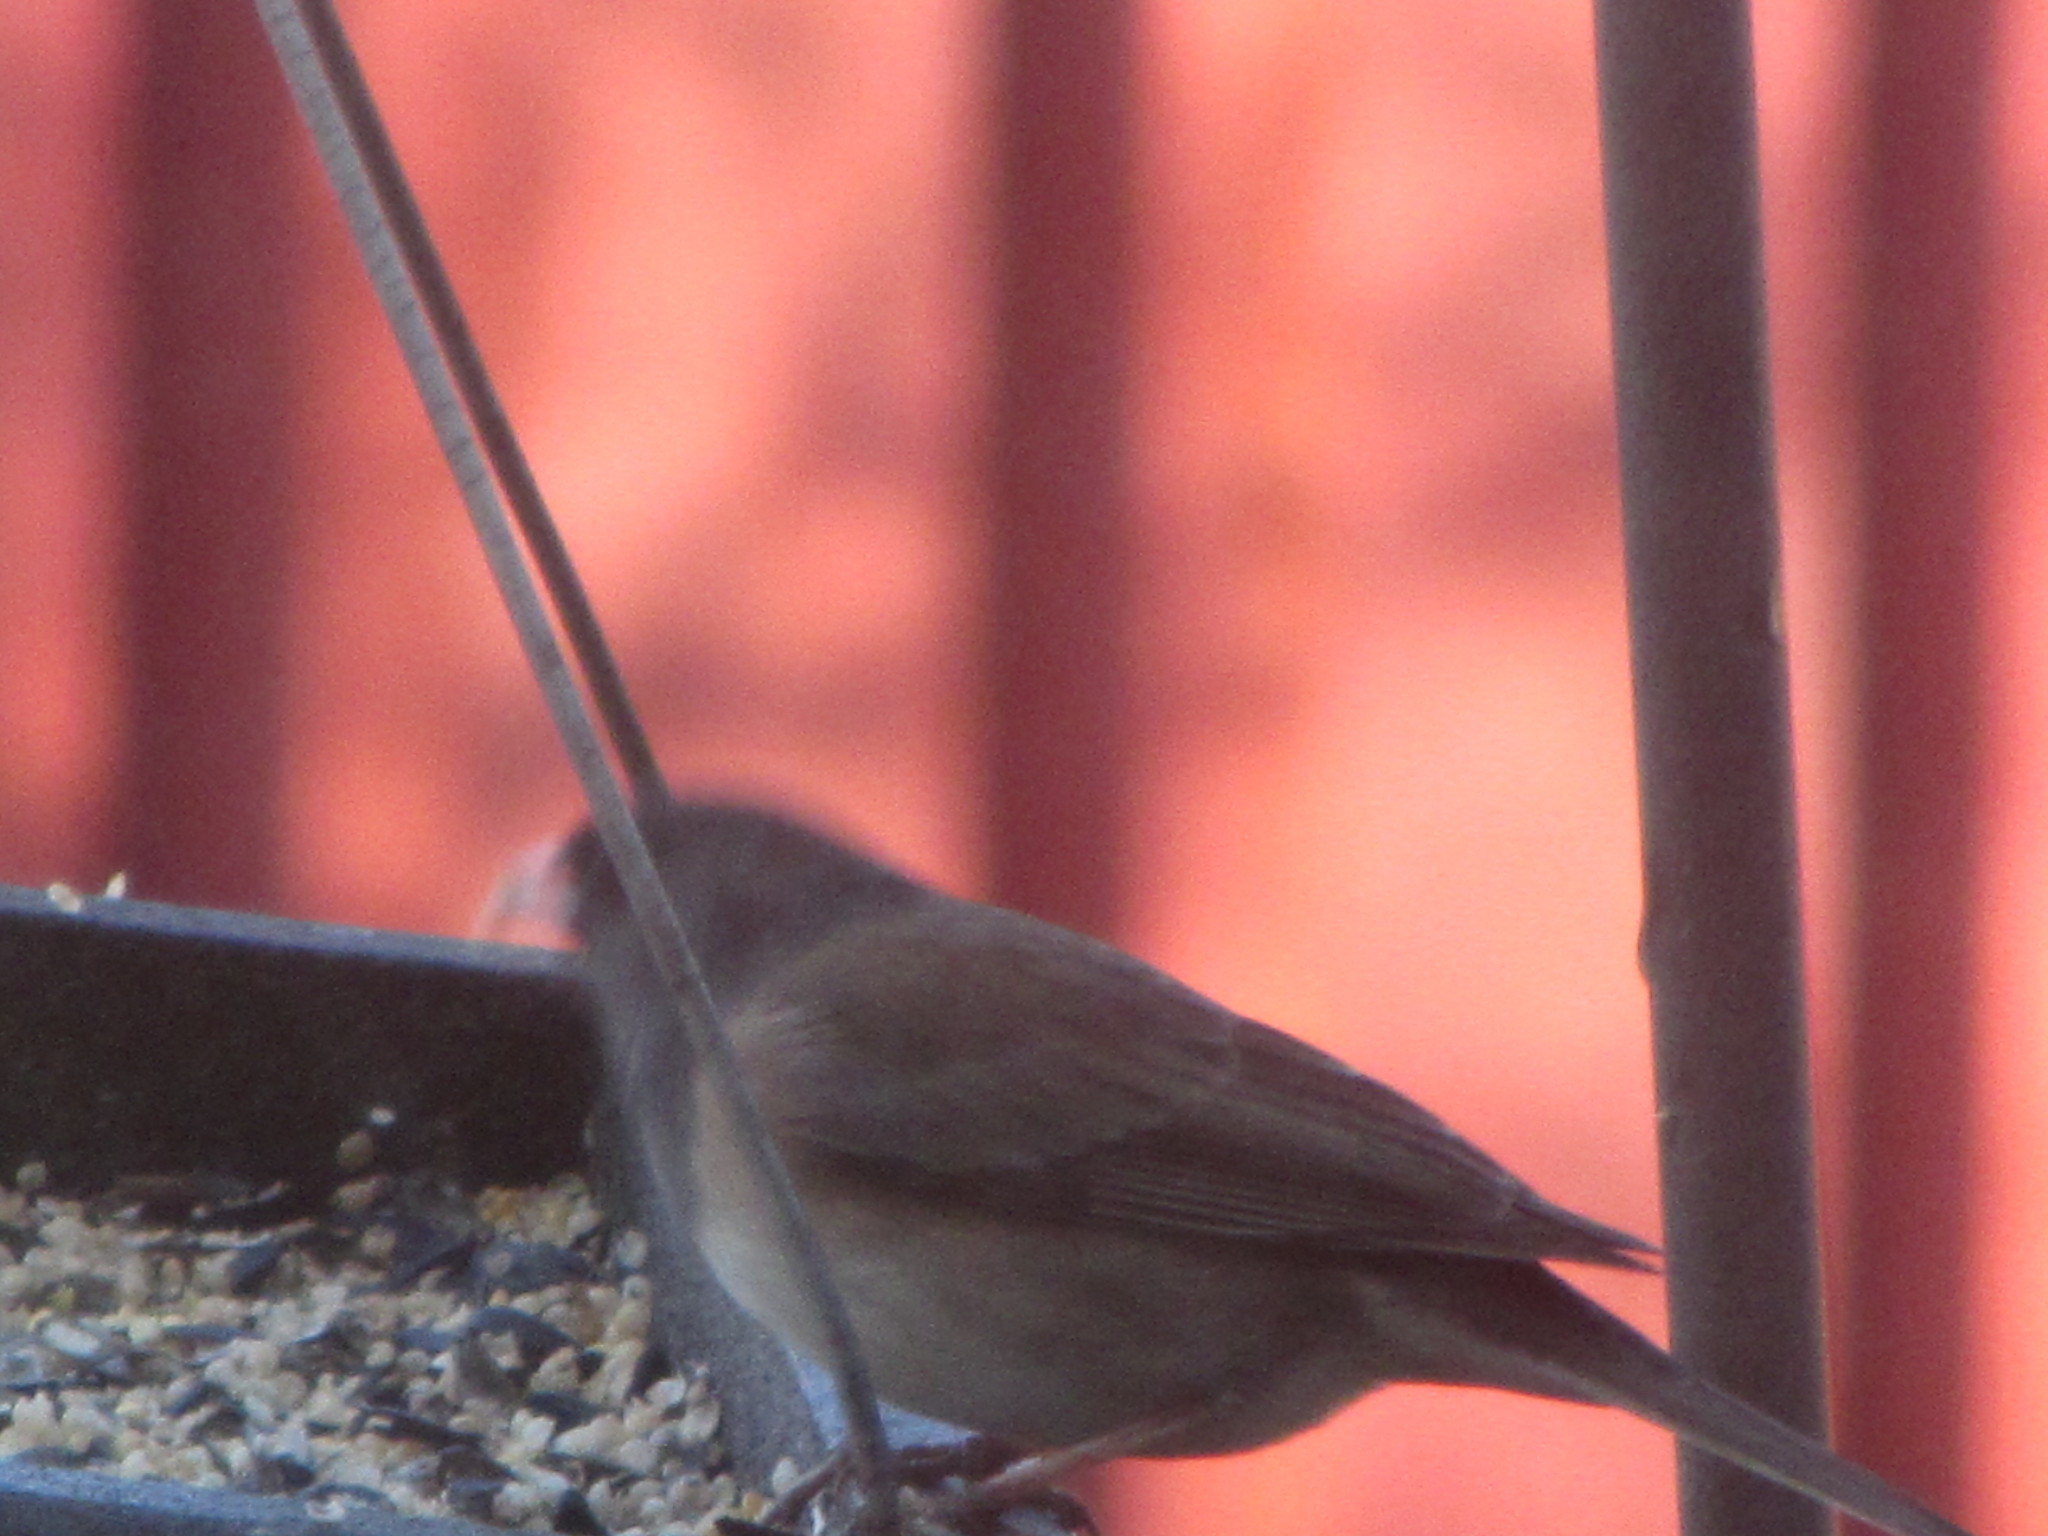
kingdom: Animalia
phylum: Chordata
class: Aves
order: Passeriformes
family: Passerellidae
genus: Junco
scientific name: Junco hyemalis
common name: Dark-eyed junco
